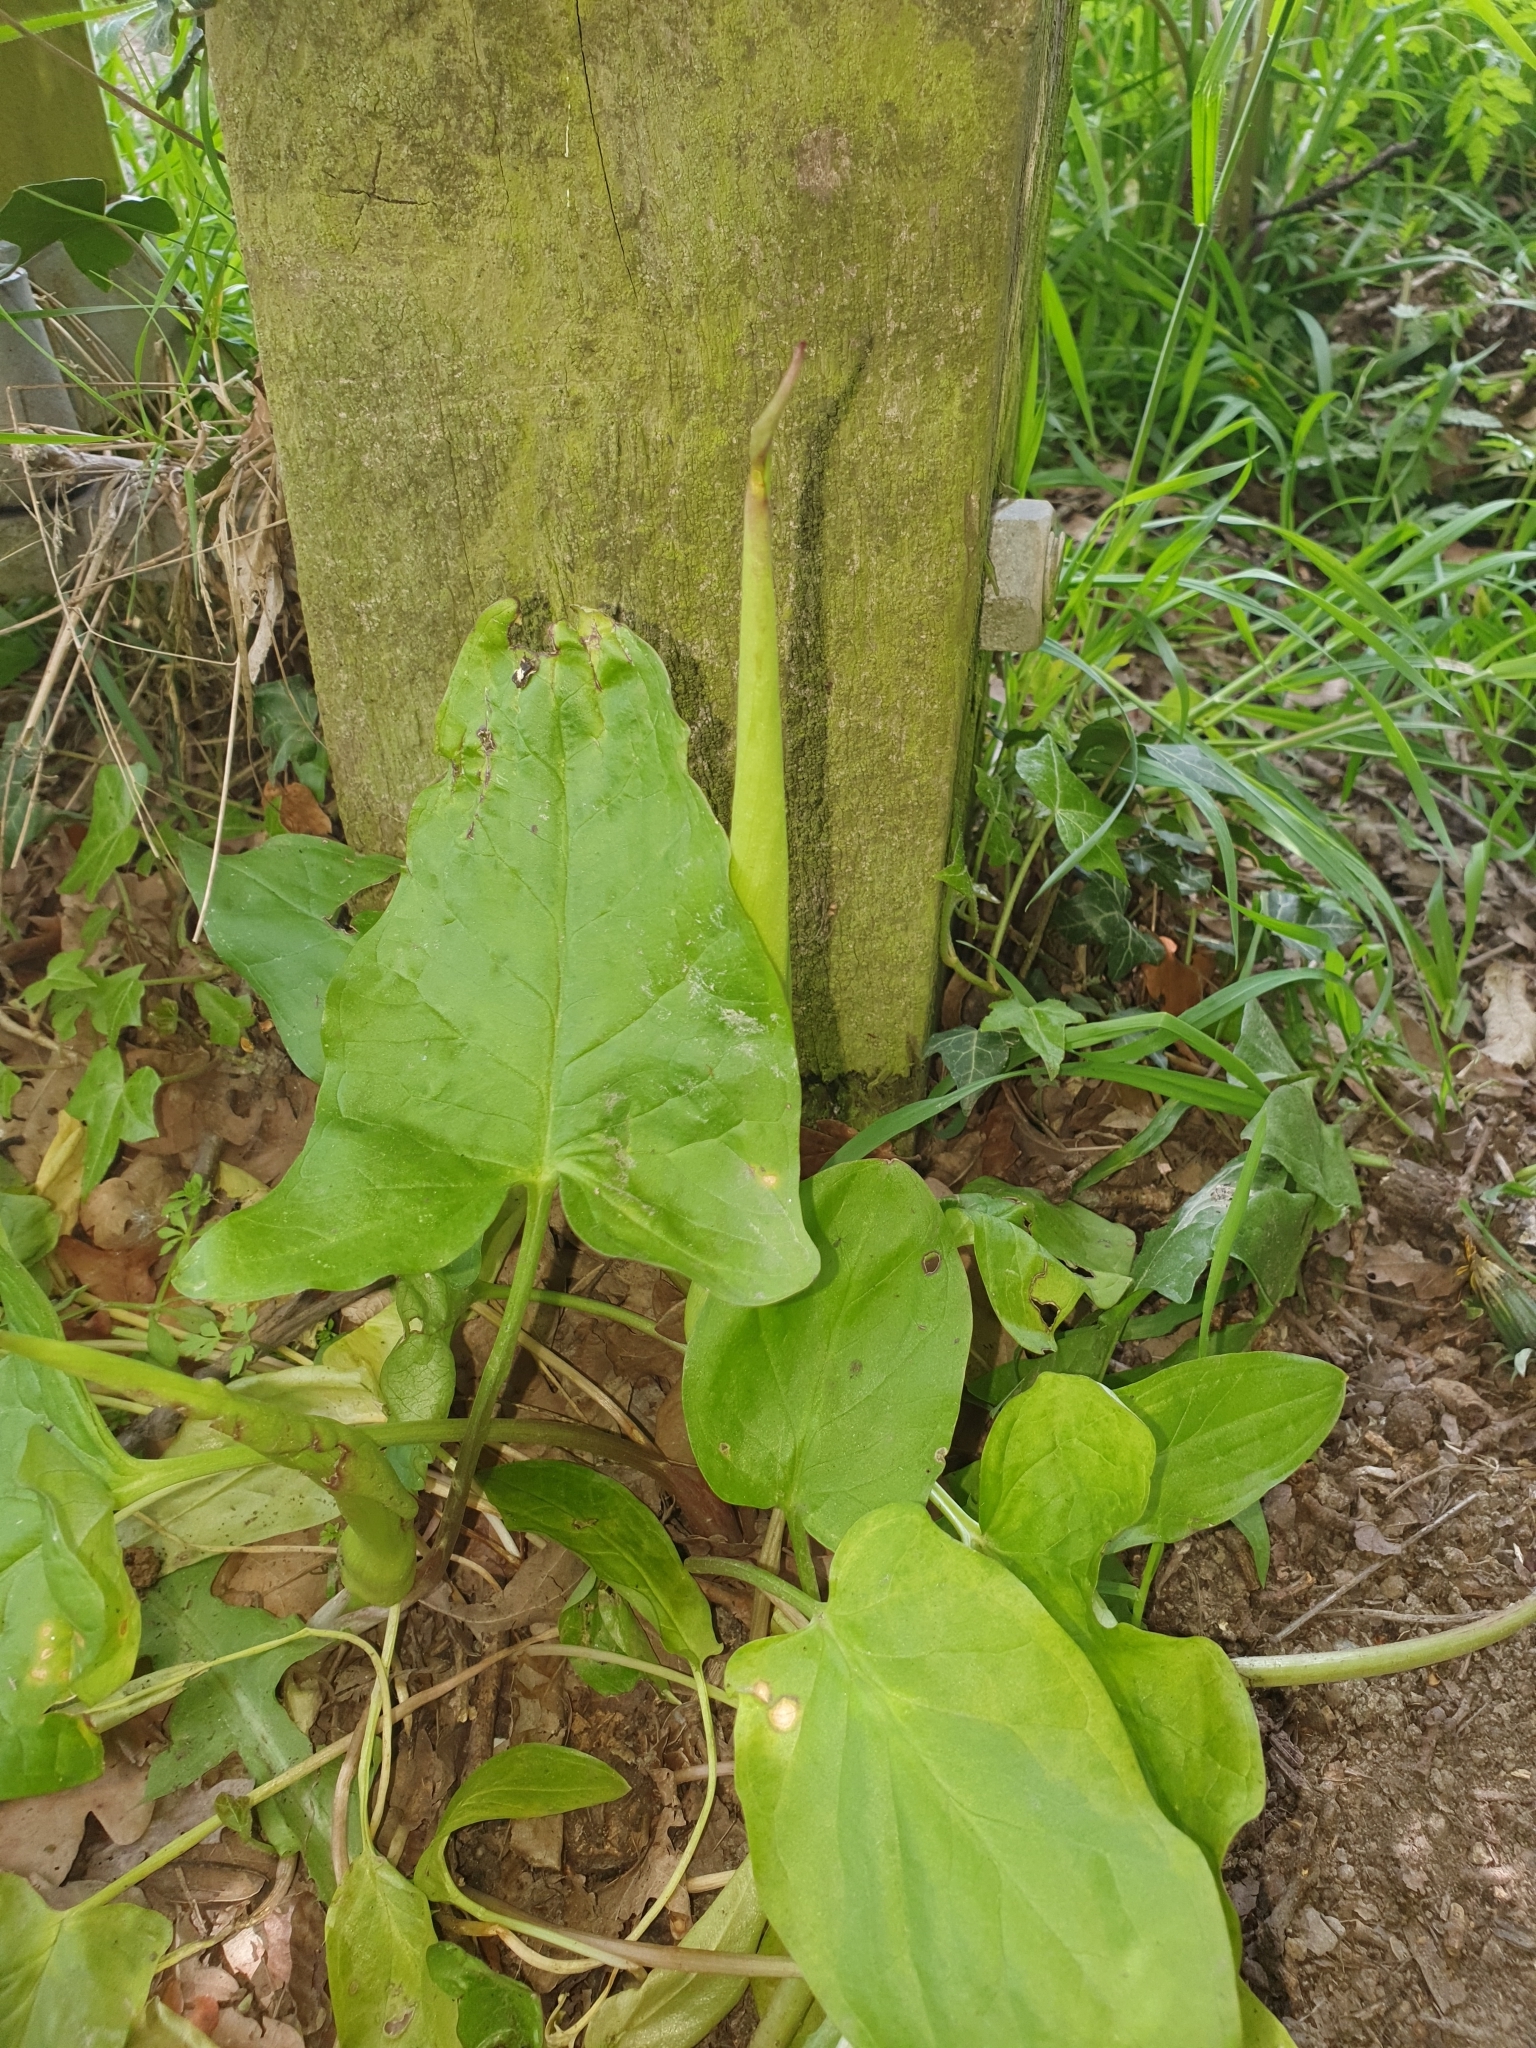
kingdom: Plantae
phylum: Tracheophyta
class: Liliopsida
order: Alismatales
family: Araceae
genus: Arum
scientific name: Arum maculatum
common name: Lords-and-ladies
